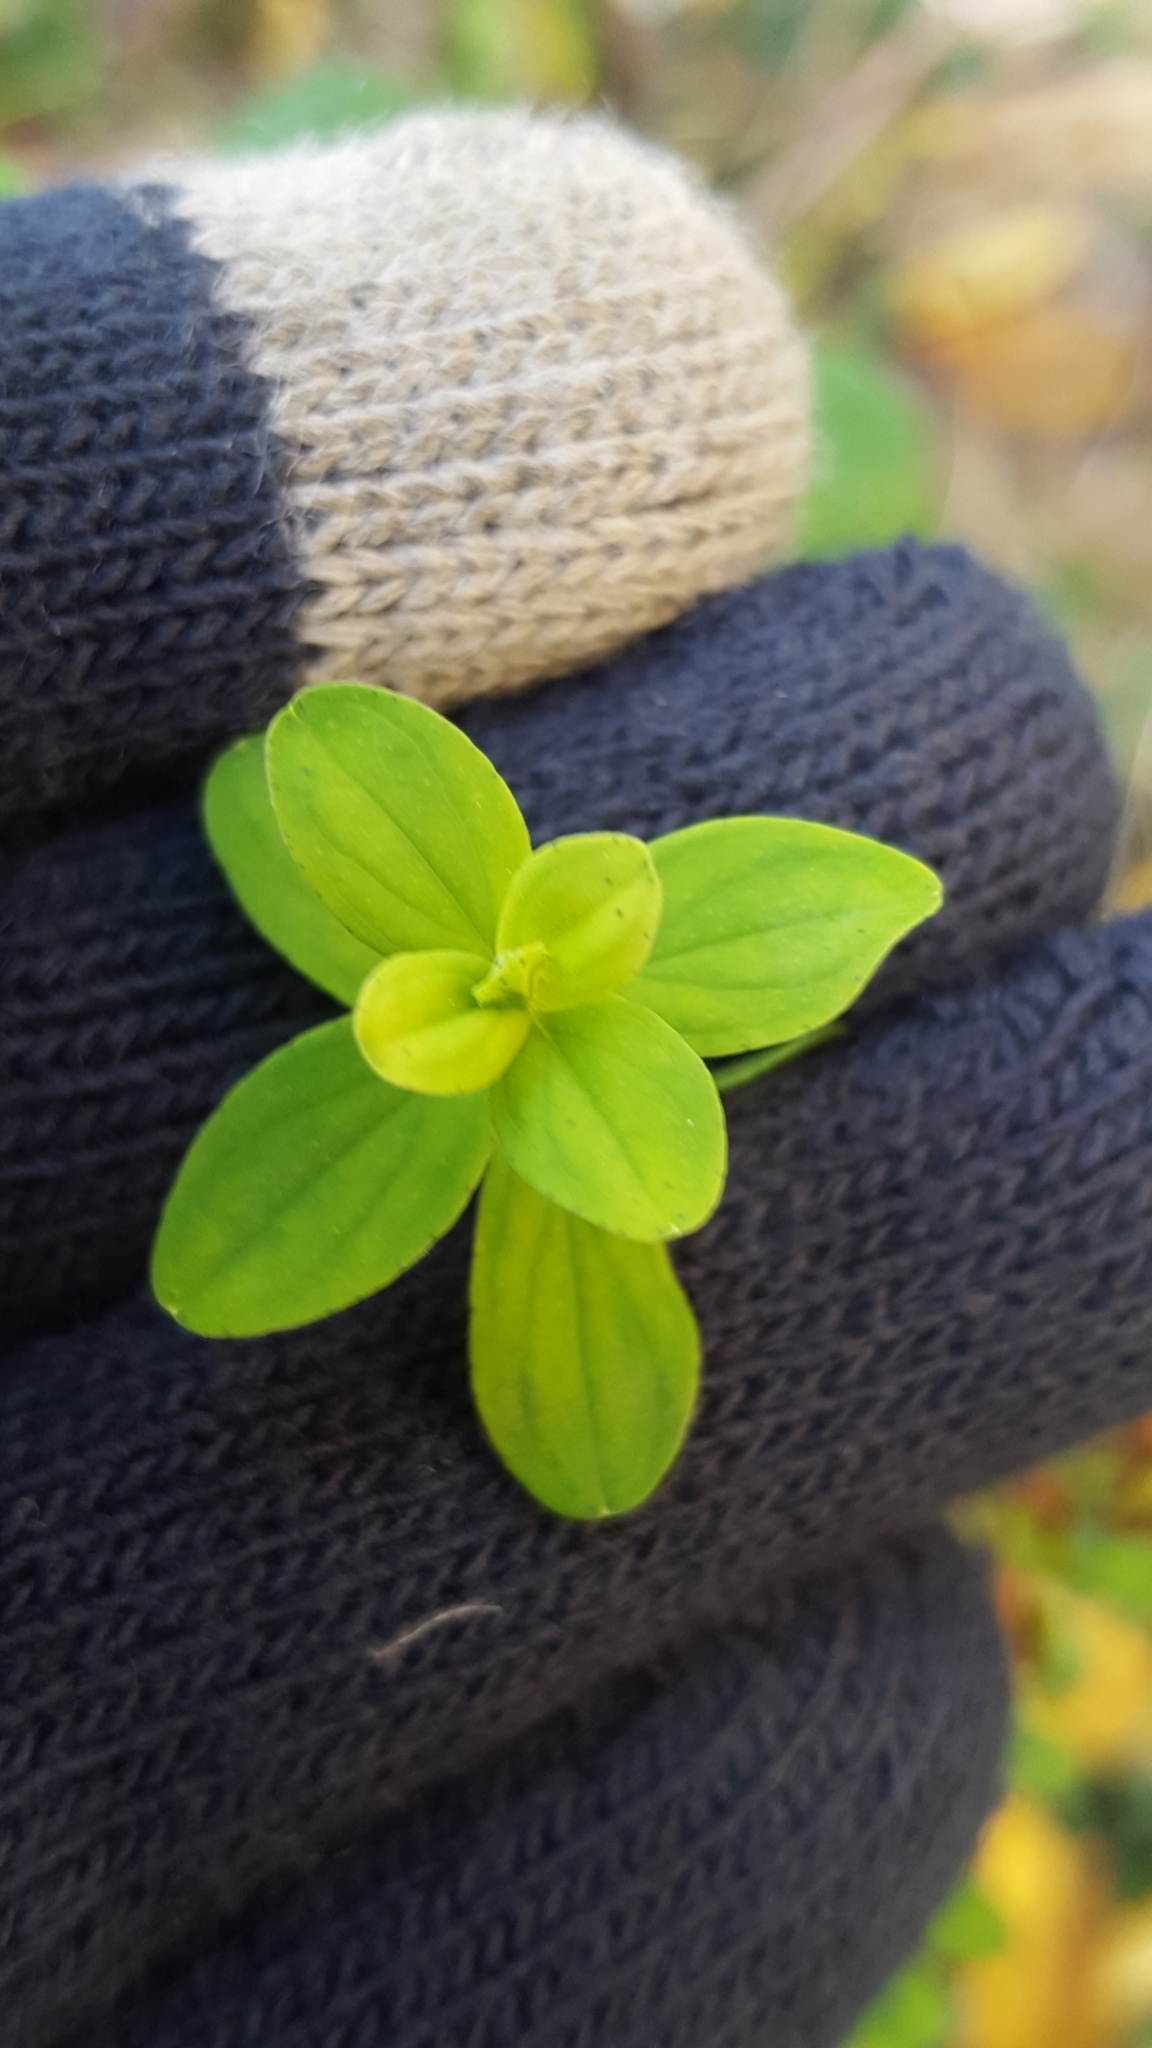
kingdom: Plantae
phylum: Tracheophyta
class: Magnoliopsida
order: Malpighiales
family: Hypericaceae
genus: Hypericum
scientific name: Hypericum perforatum
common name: Common st. johnswort
